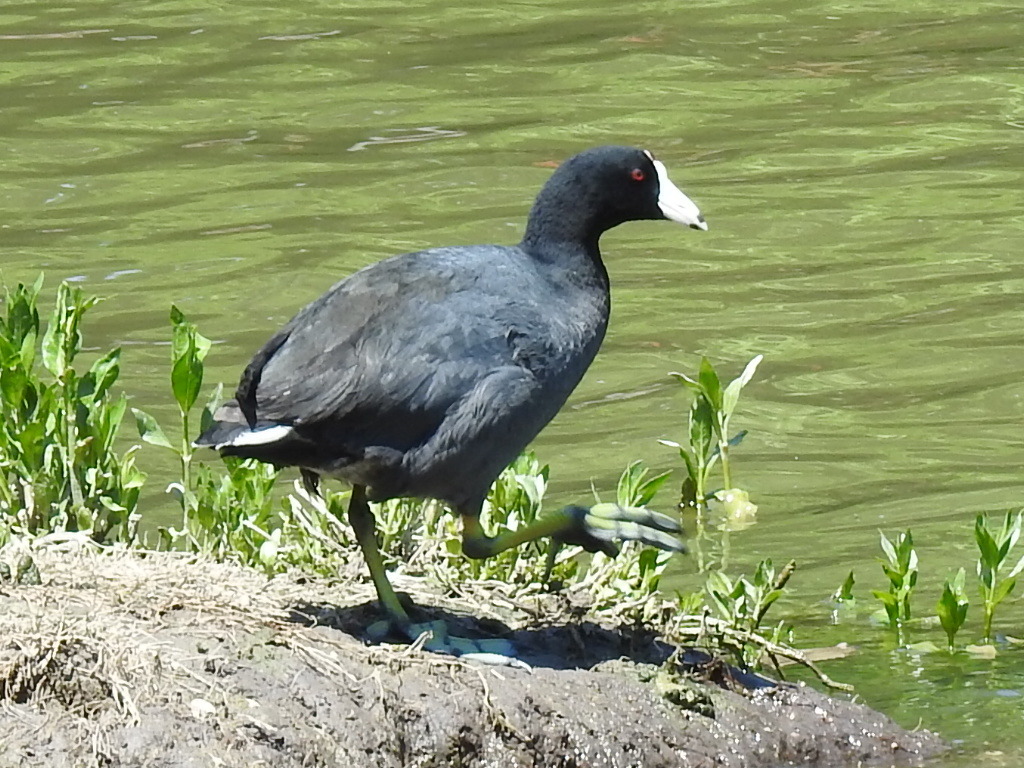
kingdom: Animalia
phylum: Chordata
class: Aves
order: Gruiformes
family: Rallidae
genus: Fulica
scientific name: Fulica americana
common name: American coot
